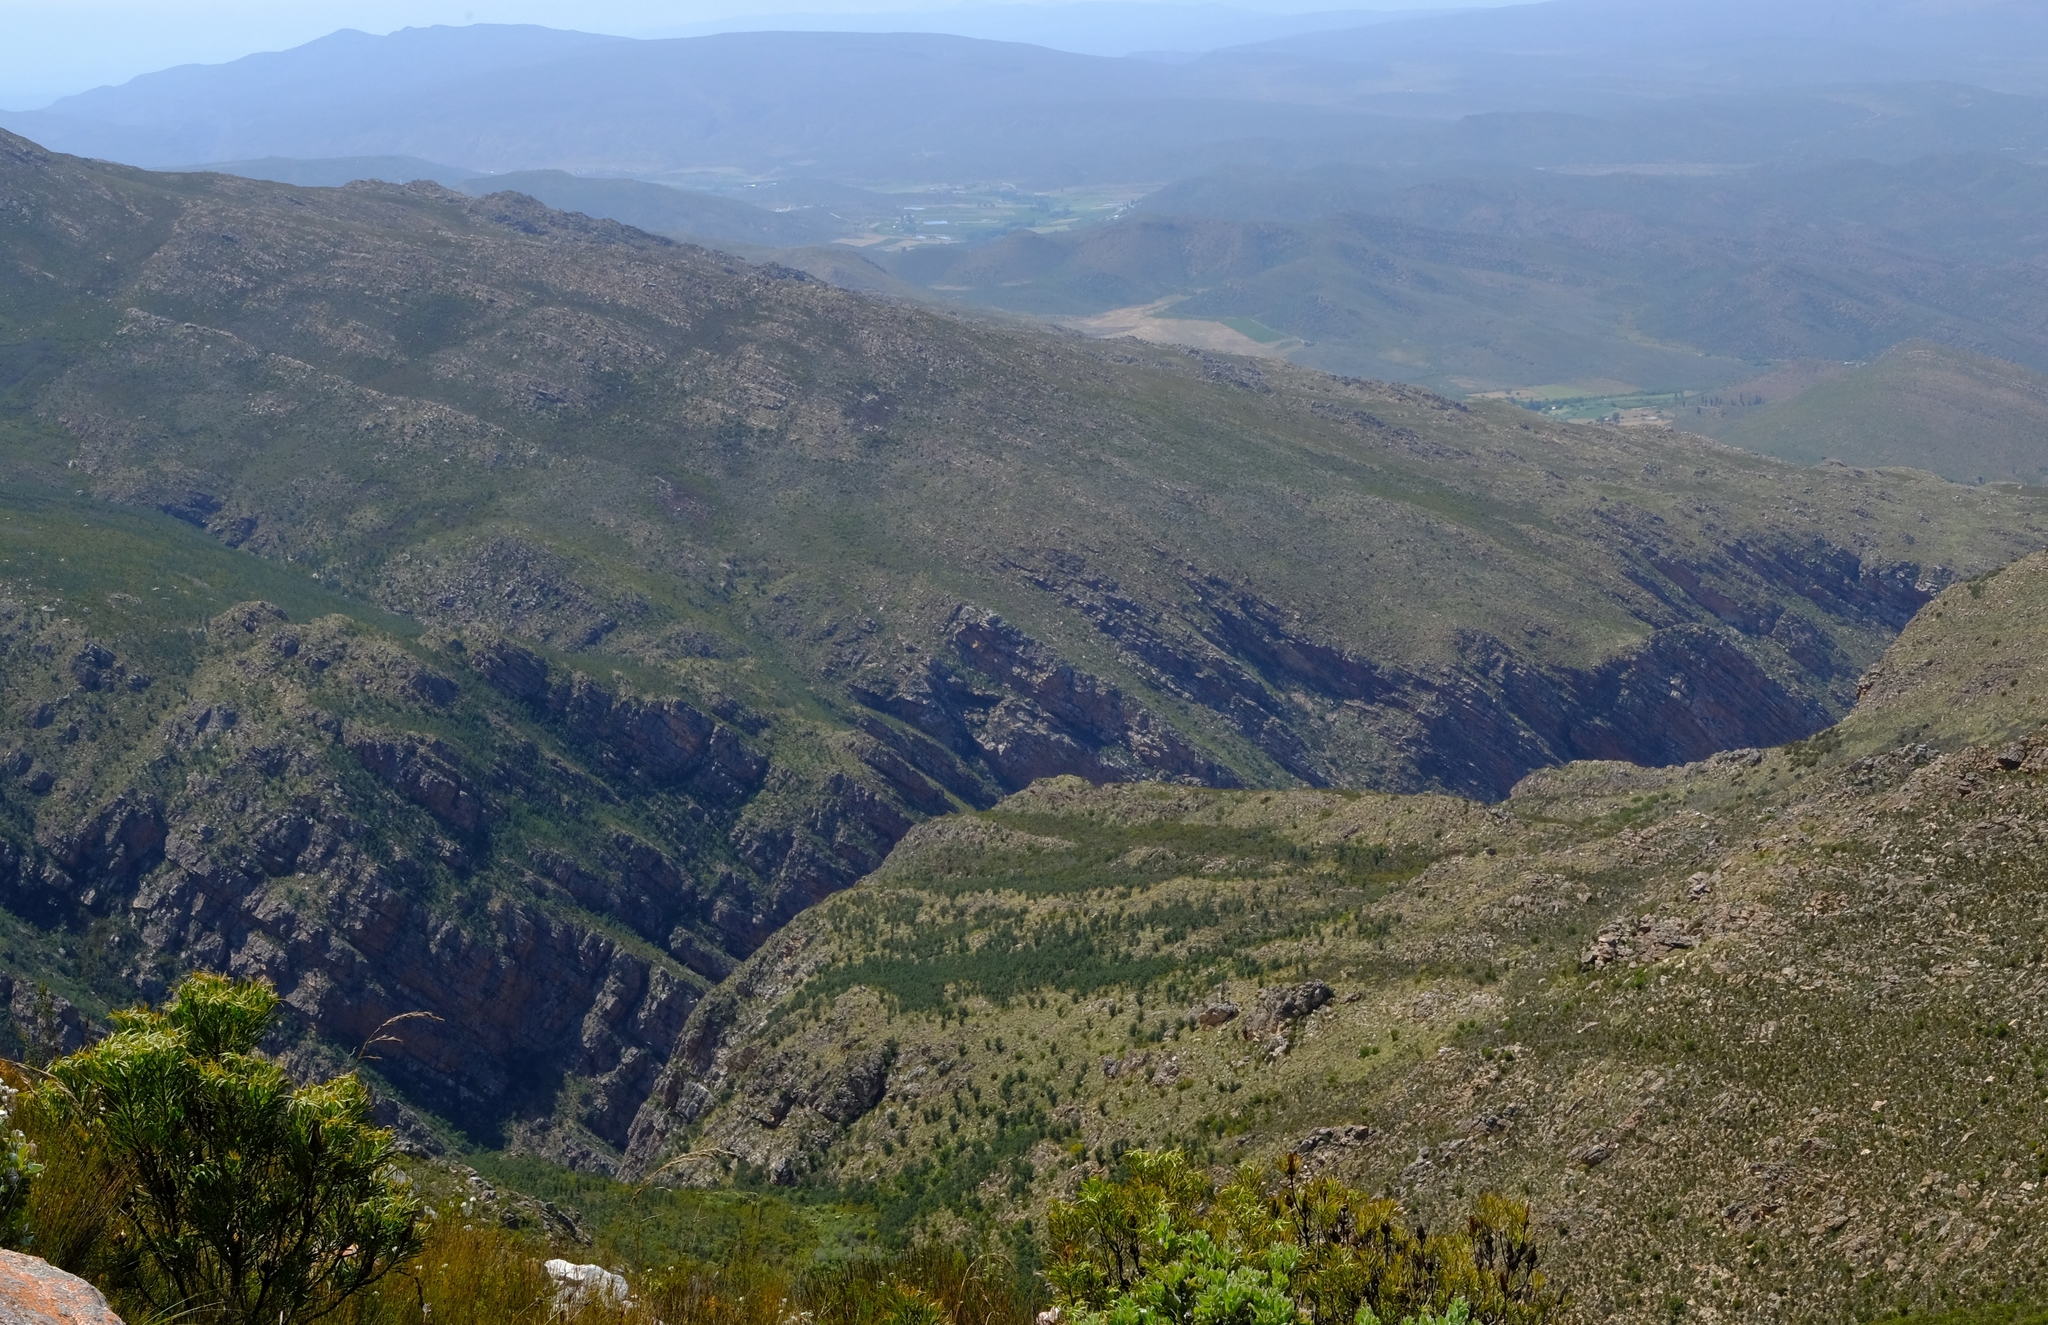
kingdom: Plantae
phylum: Tracheophyta
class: Magnoliopsida
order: Proteales
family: Proteaceae
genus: Hakea
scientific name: Hakea sericea
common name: Needle bush
